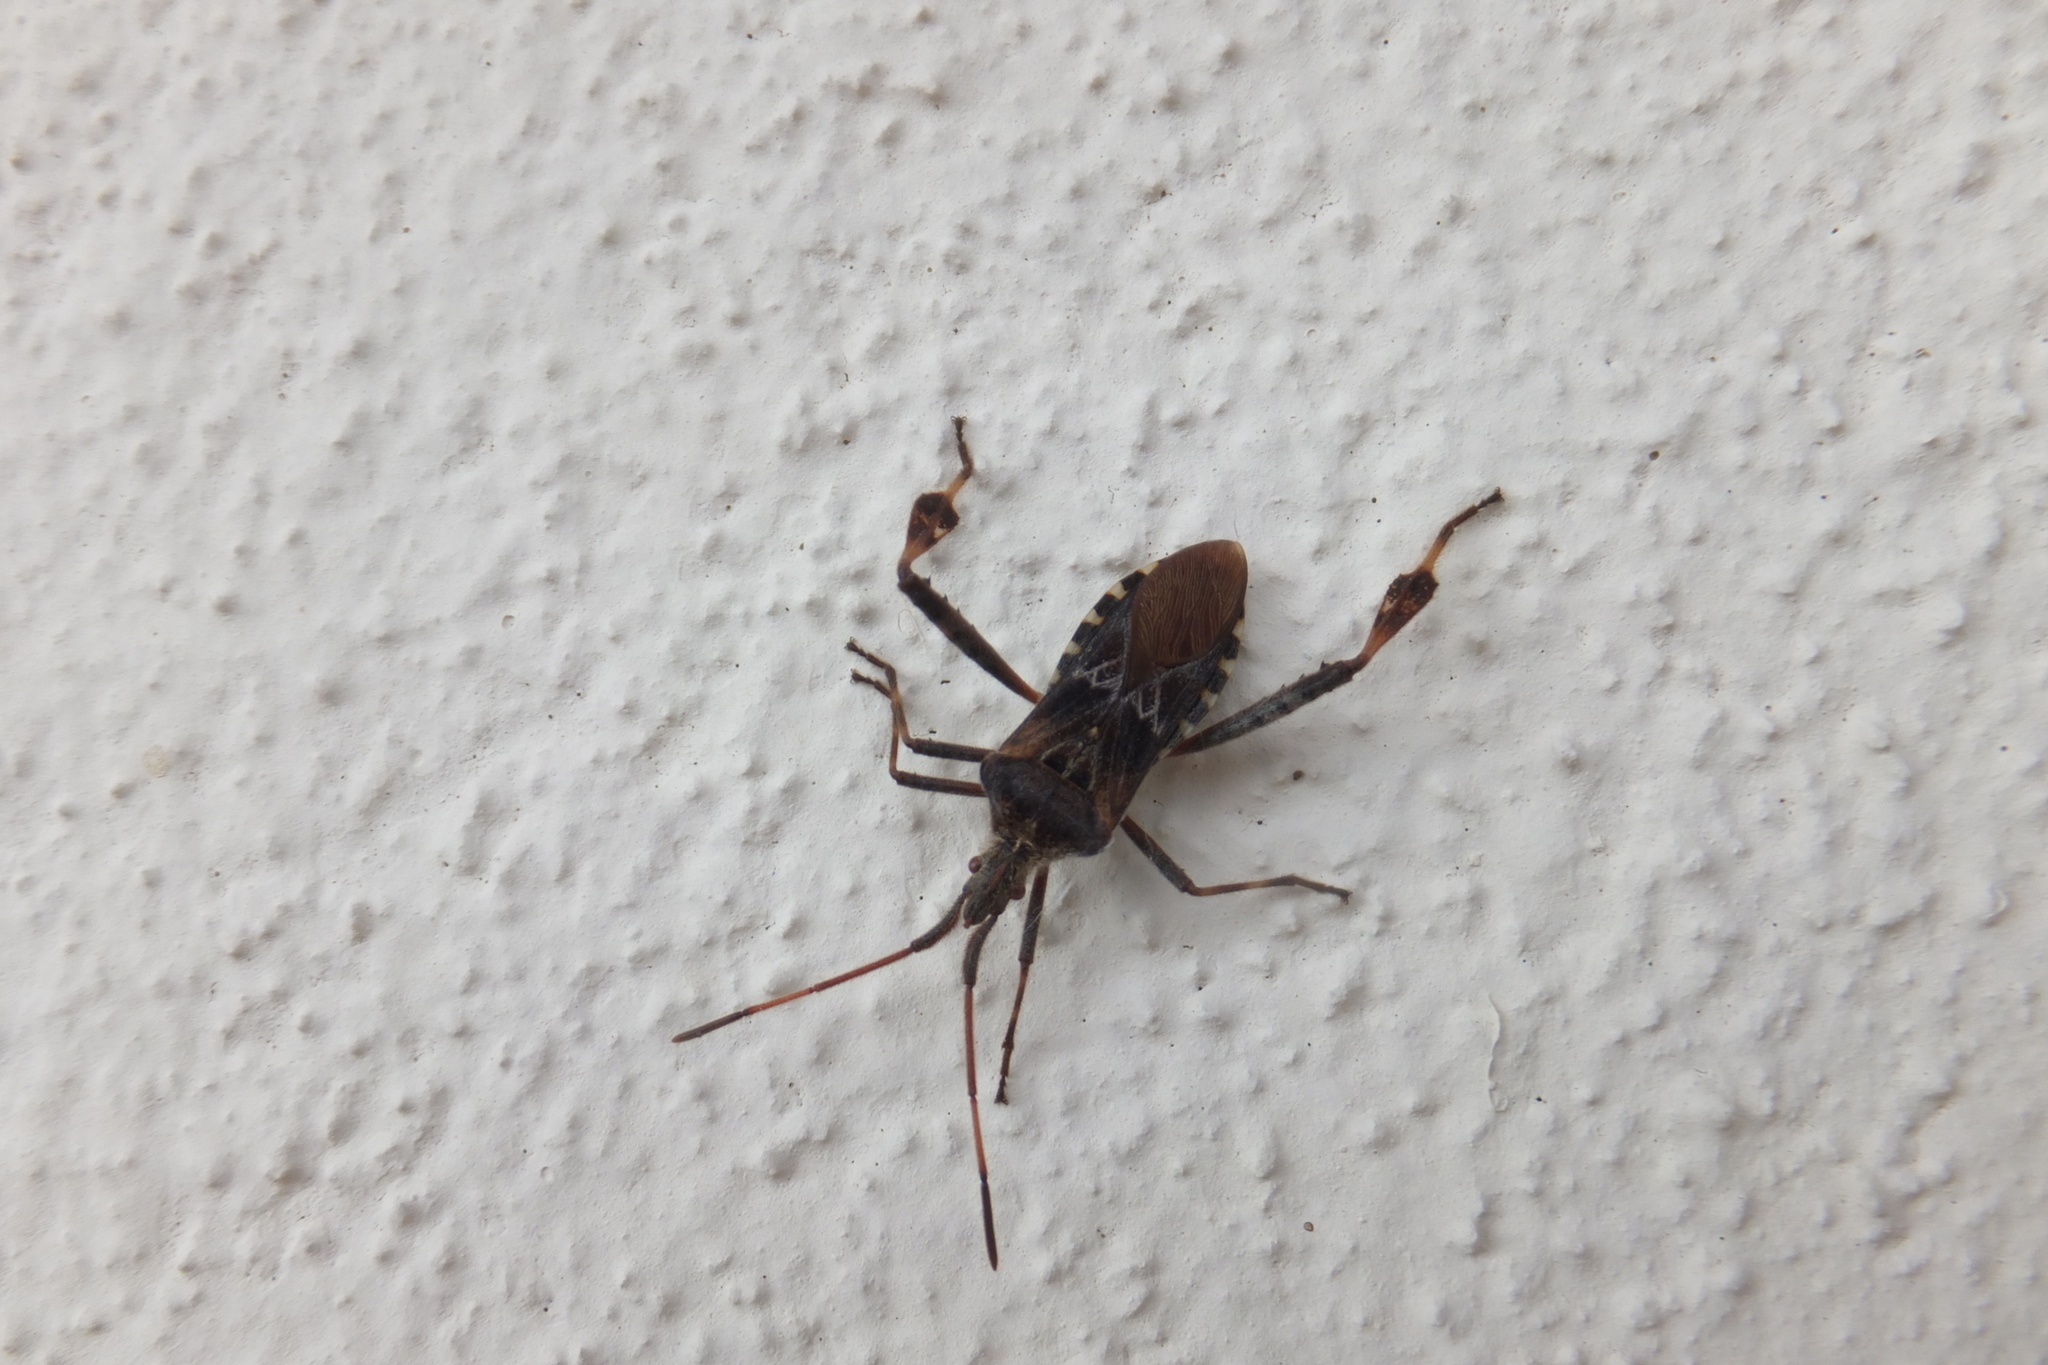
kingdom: Animalia
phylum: Arthropoda
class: Insecta
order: Hemiptera
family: Coreidae
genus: Leptoglossus
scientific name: Leptoglossus occidentalis
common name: Western conifer-seed bug
